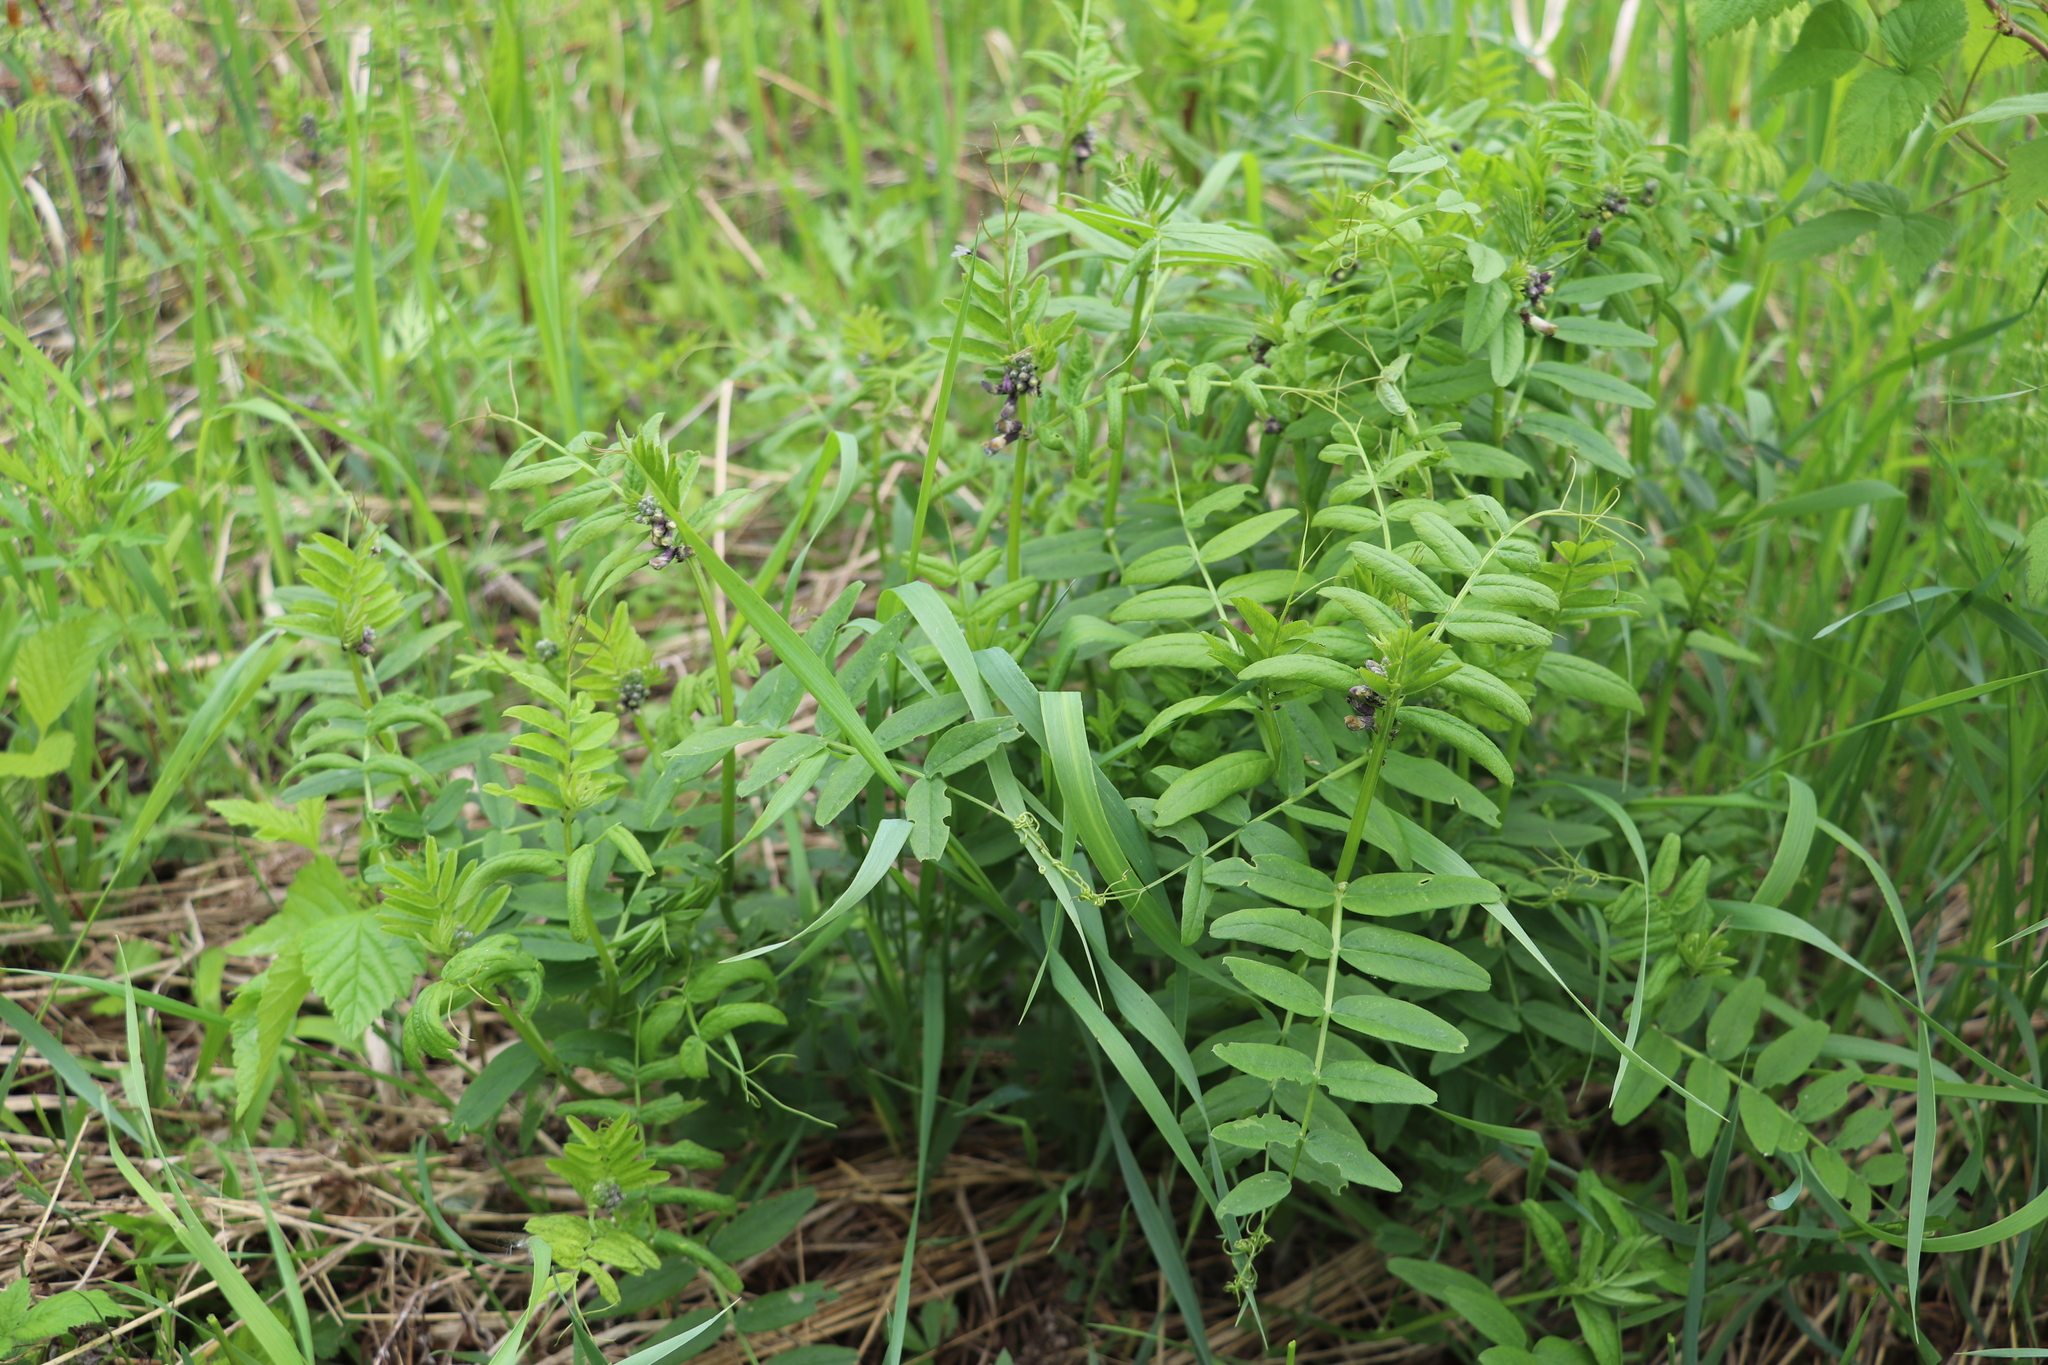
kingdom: Plantae
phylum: Tracheophyta
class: Magnoliopsida
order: Fabales
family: Fabaceae
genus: Vicia
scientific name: Vicia sepium
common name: Bush vetch
